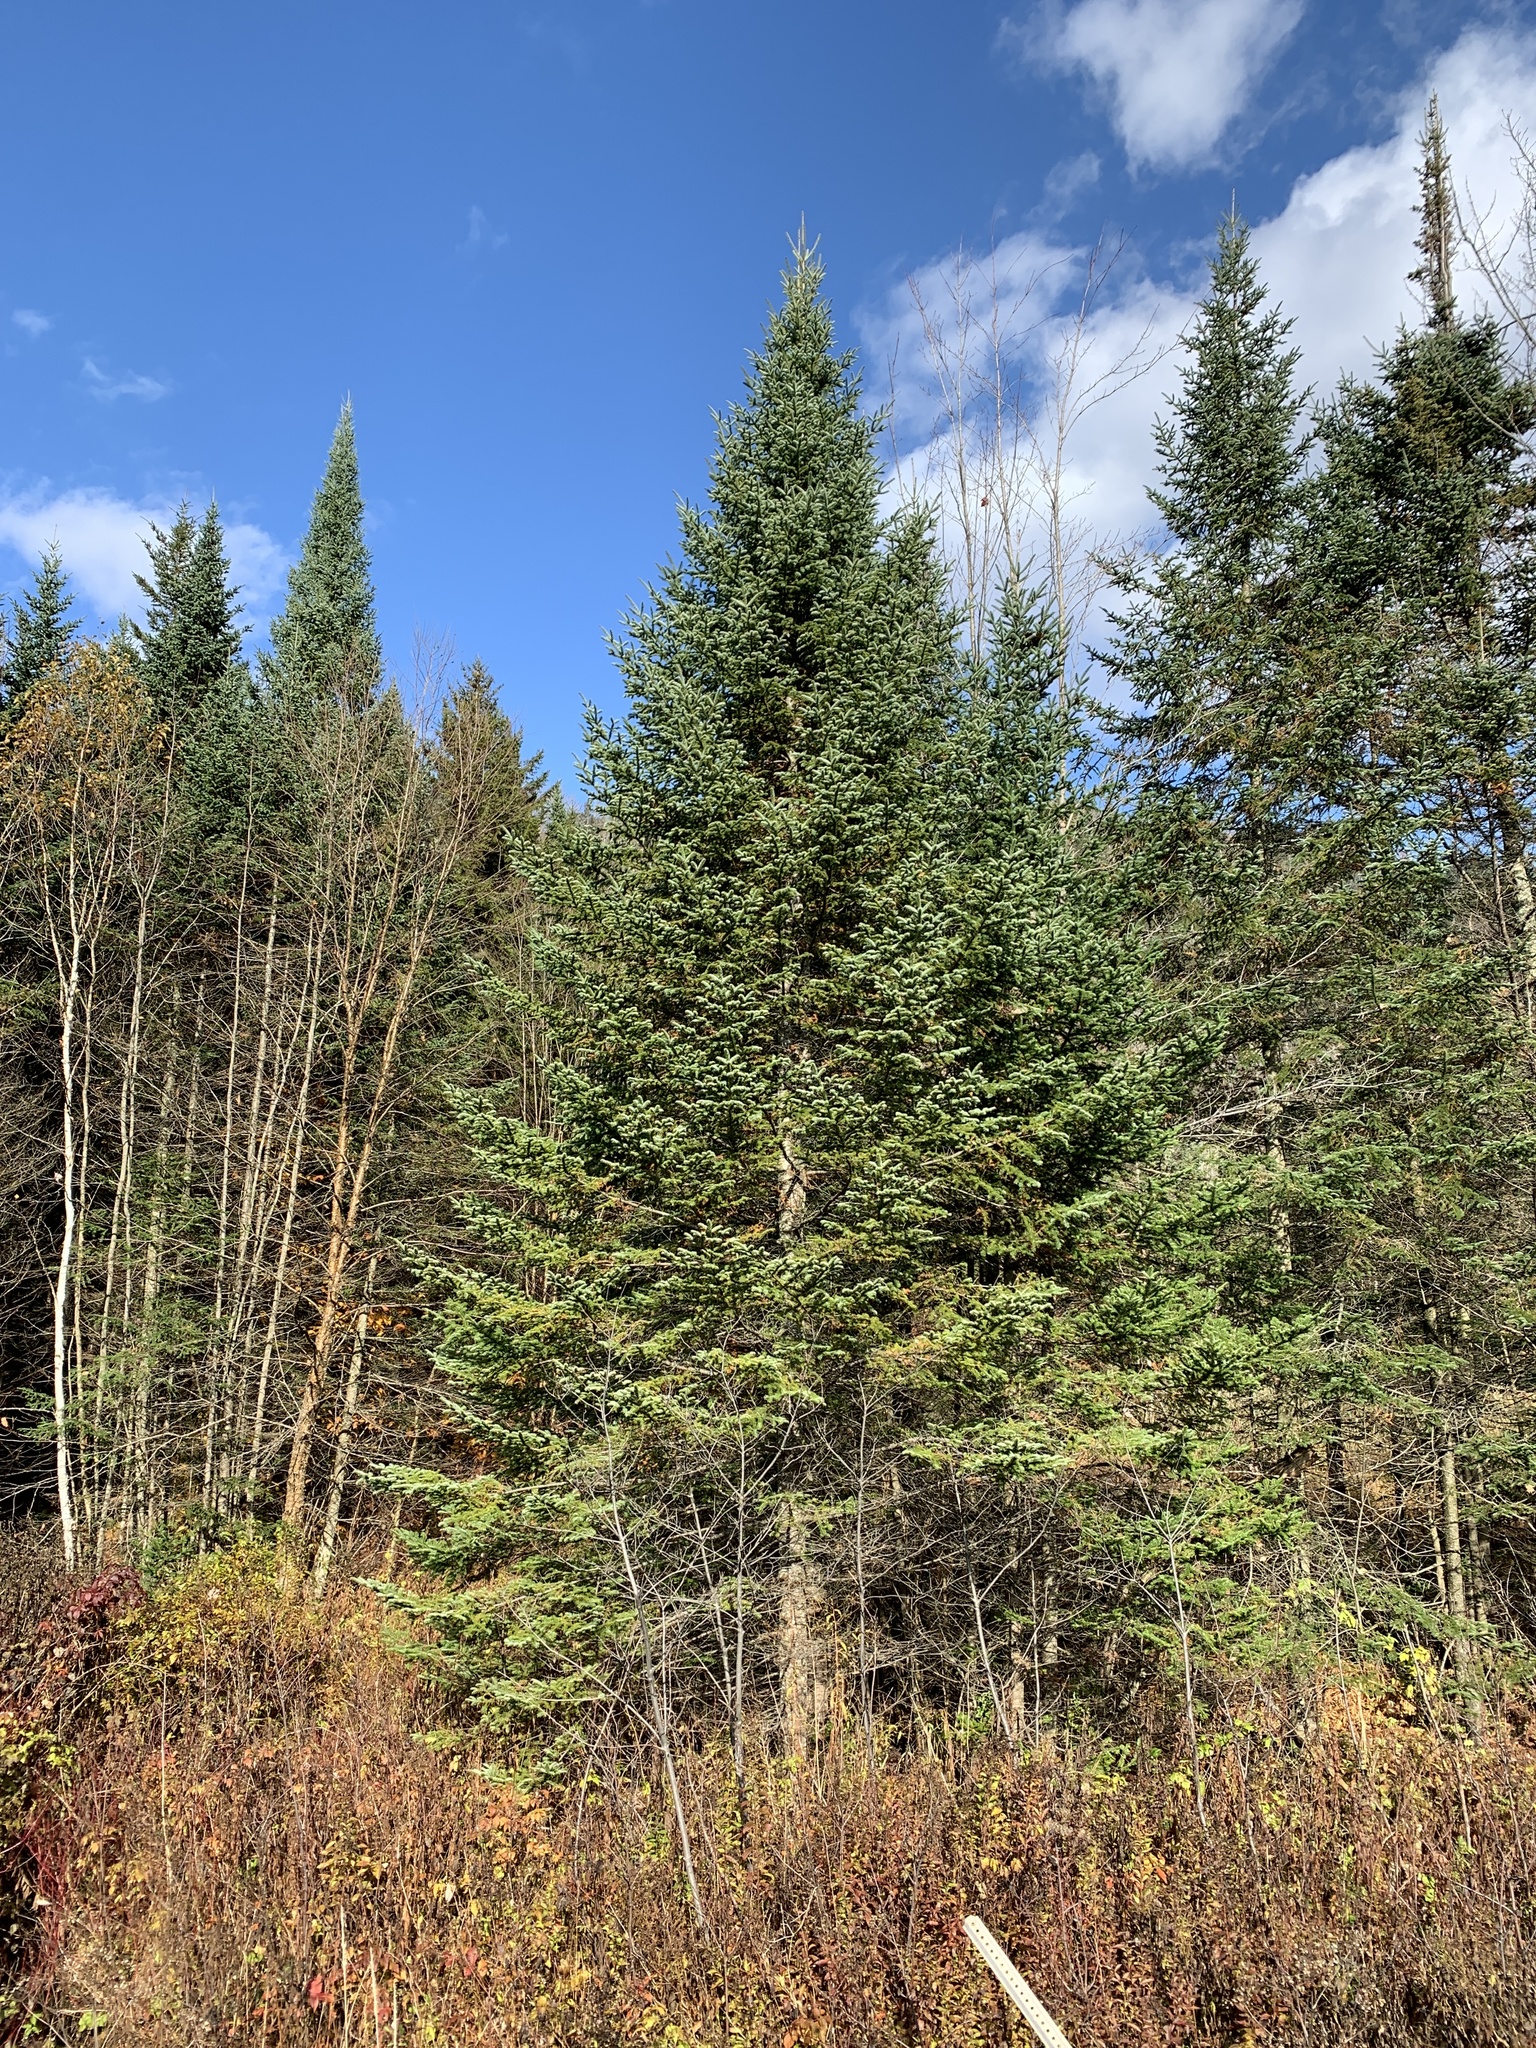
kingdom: Plantae
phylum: Tracheophyta
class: Pinopsida
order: Pinales
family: Pinaceae
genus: Abies
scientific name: Abies balsamea
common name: Balsam fir
